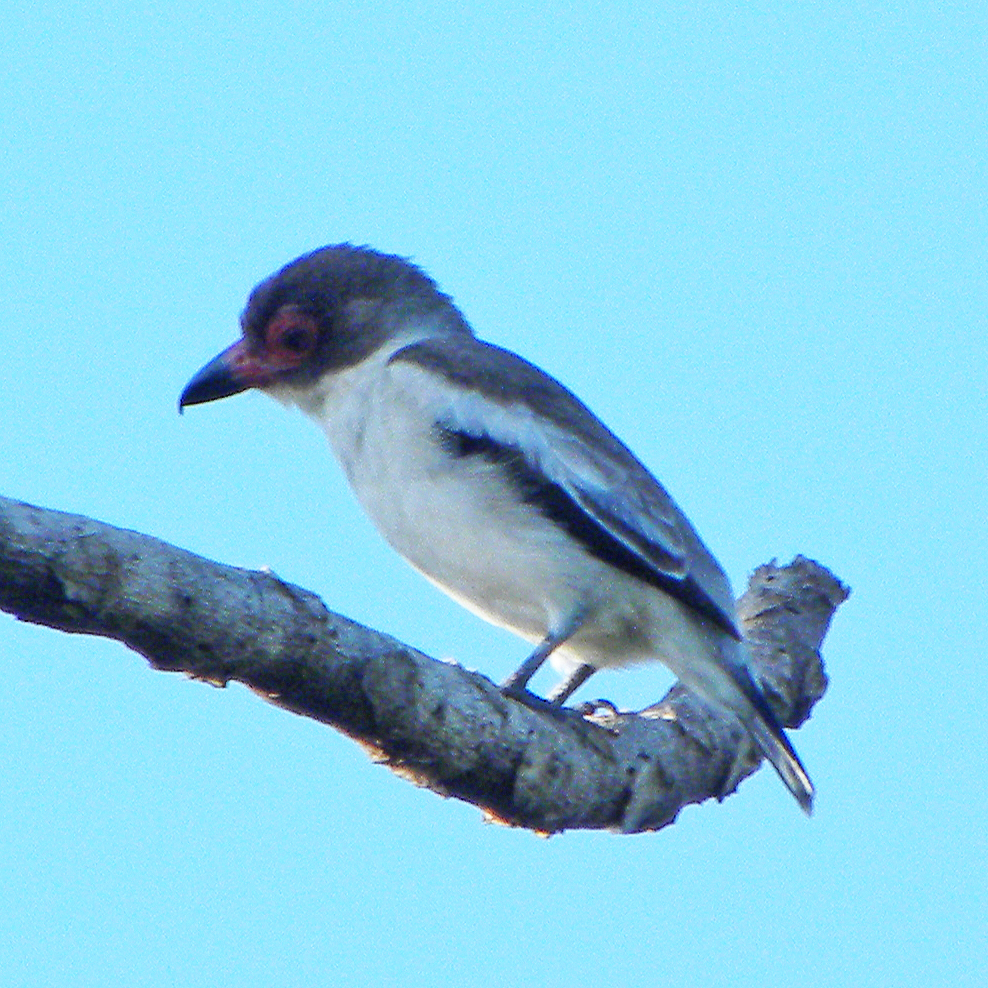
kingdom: Animalia
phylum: Chordata
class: Aves
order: Passeriformes
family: Cotingidae
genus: Tityra
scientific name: Tityra semifasciata
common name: Masked tityra
